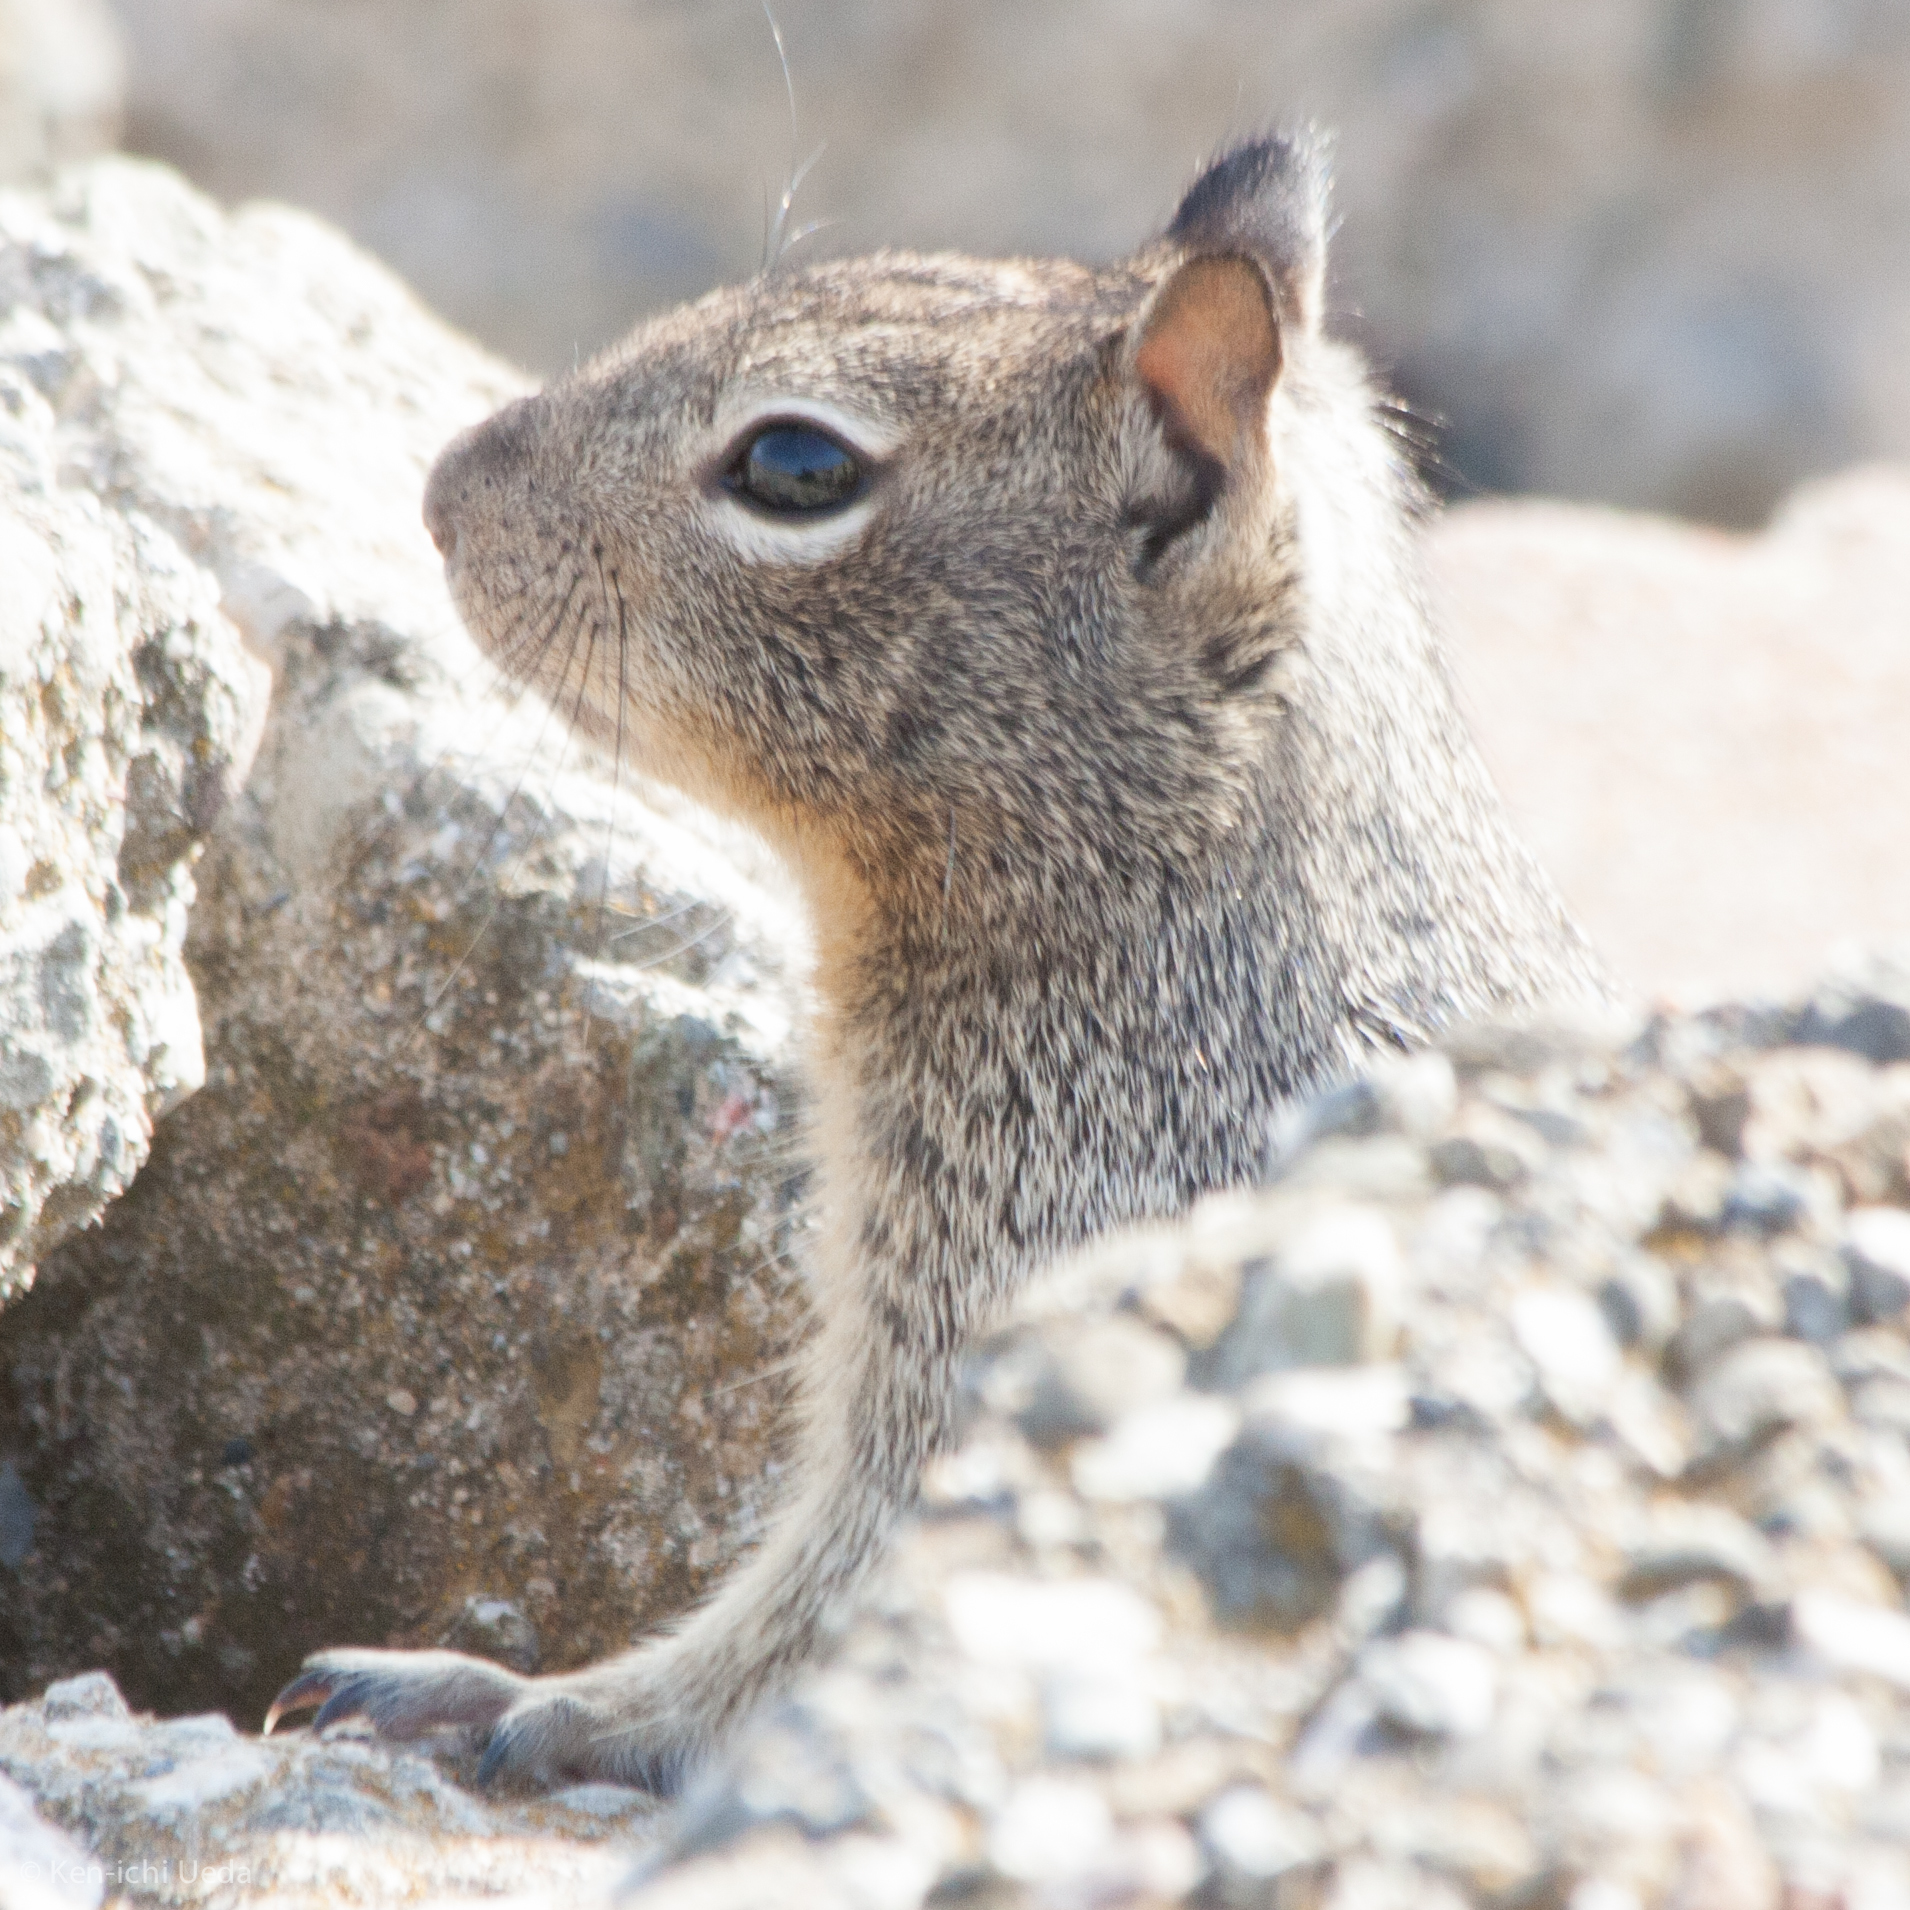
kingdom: Animalia
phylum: Chordata
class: Mammalia
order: Rodentia
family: Sciuridae
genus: Otospermophilus
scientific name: Otospermophilus beecheyi
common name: California ground squirrel
